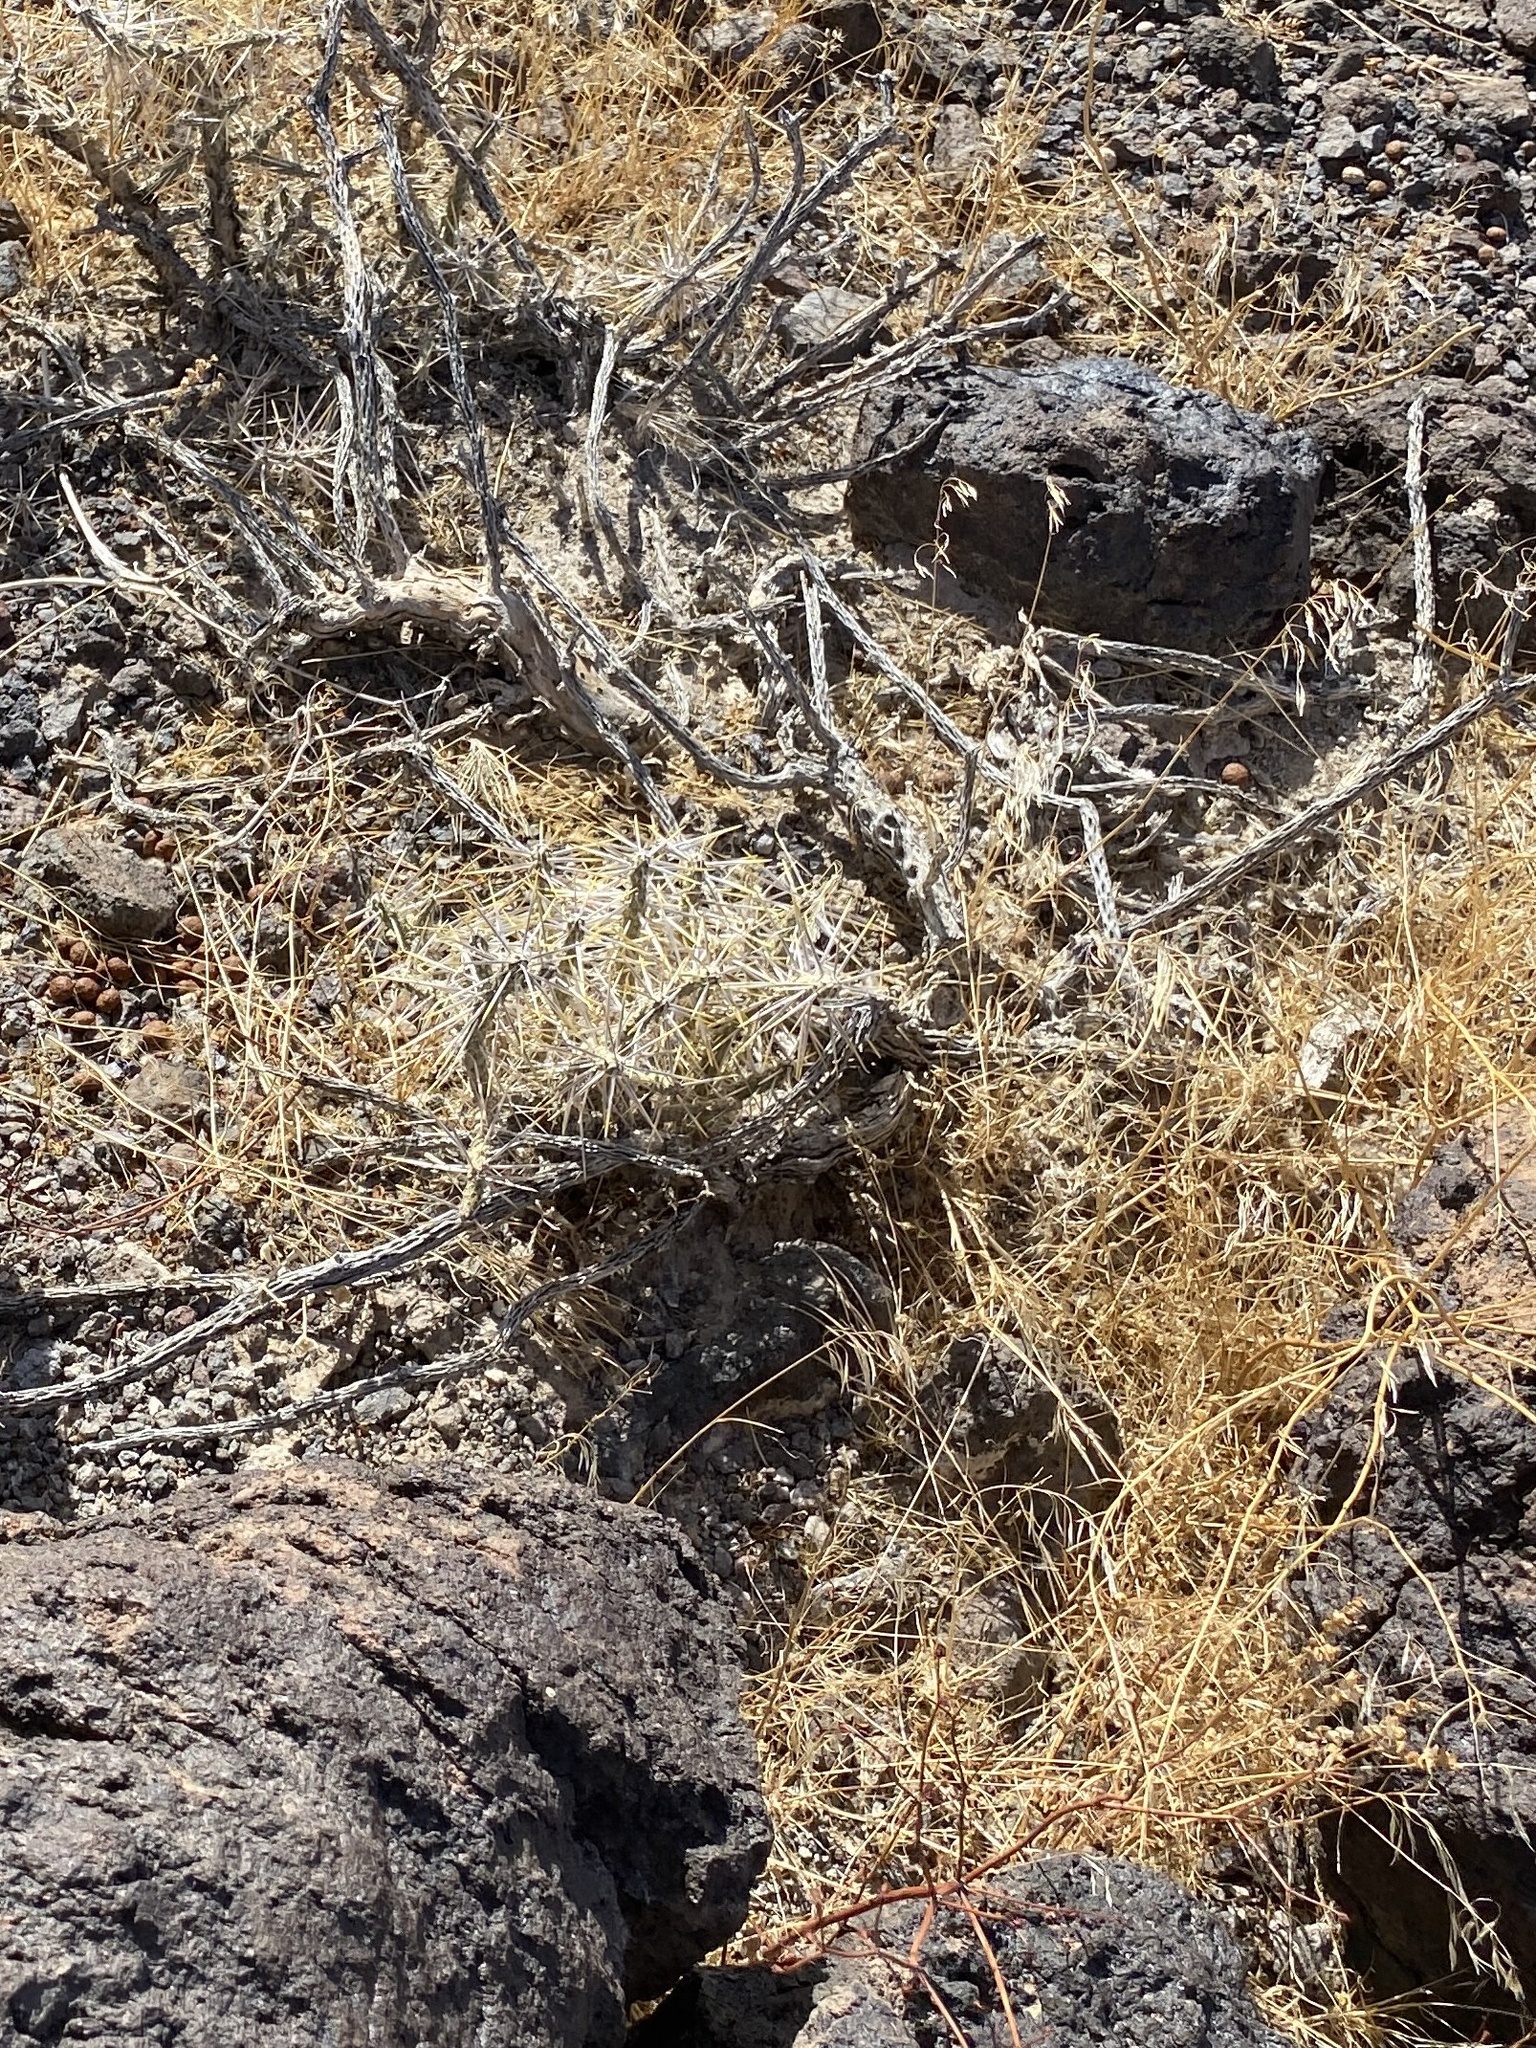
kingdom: Plantae
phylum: Tracheophyta
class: Magnoliopsida
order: Caryophyllales
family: Cactaceae
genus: Cylindropuntia
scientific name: Cylindropuntia ramosissima
